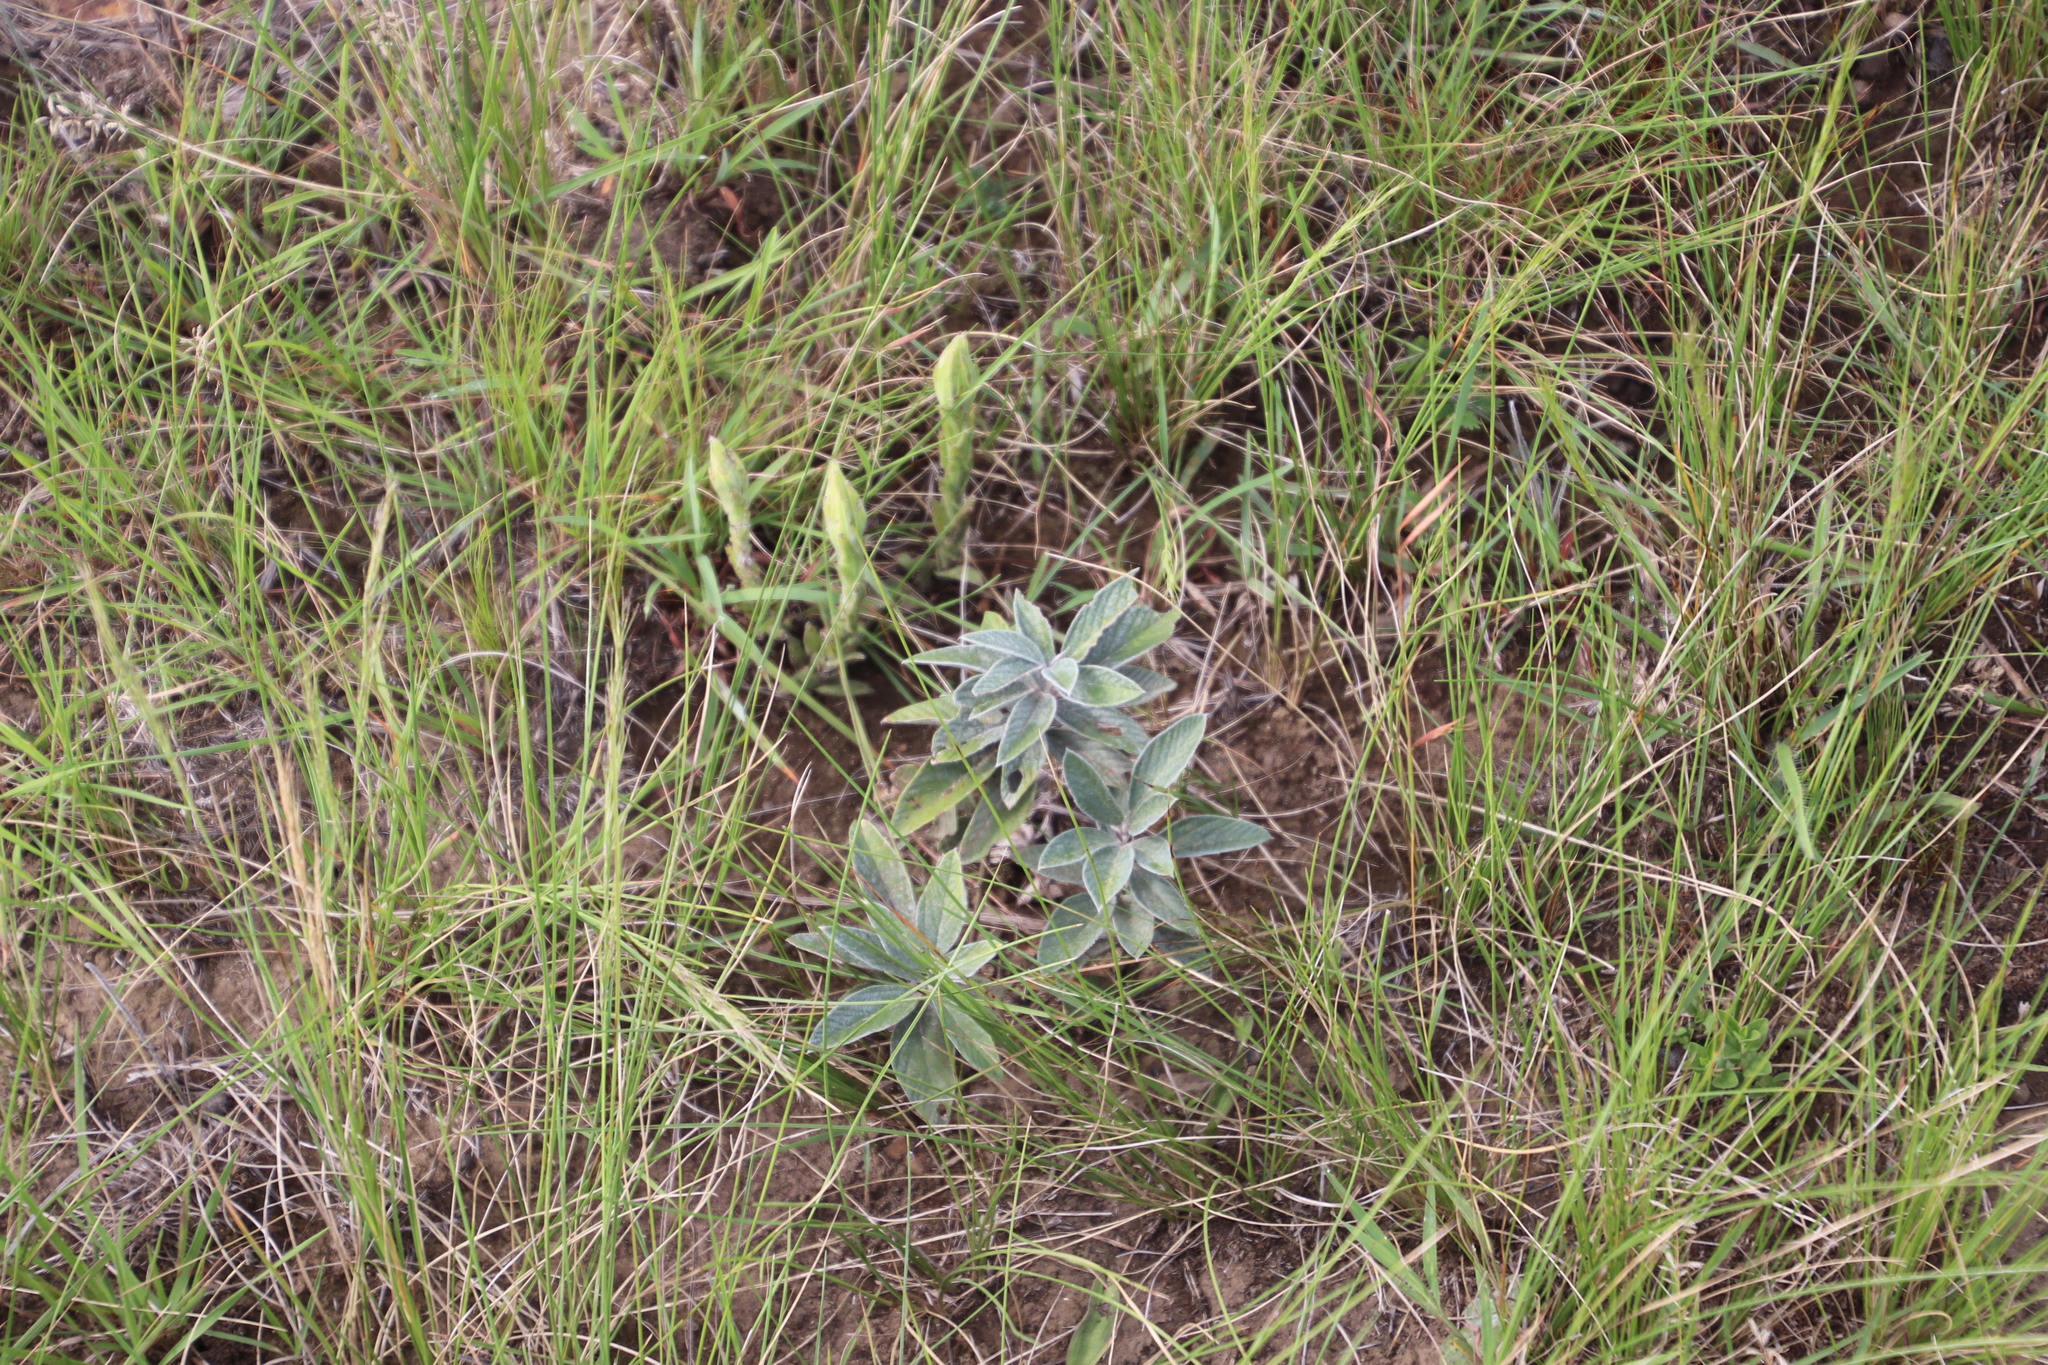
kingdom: Plantae
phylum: Tracheophyta
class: Magnoliopsida
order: Fabales
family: Fabaceae
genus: Eriosema
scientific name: Eriosema dregei
